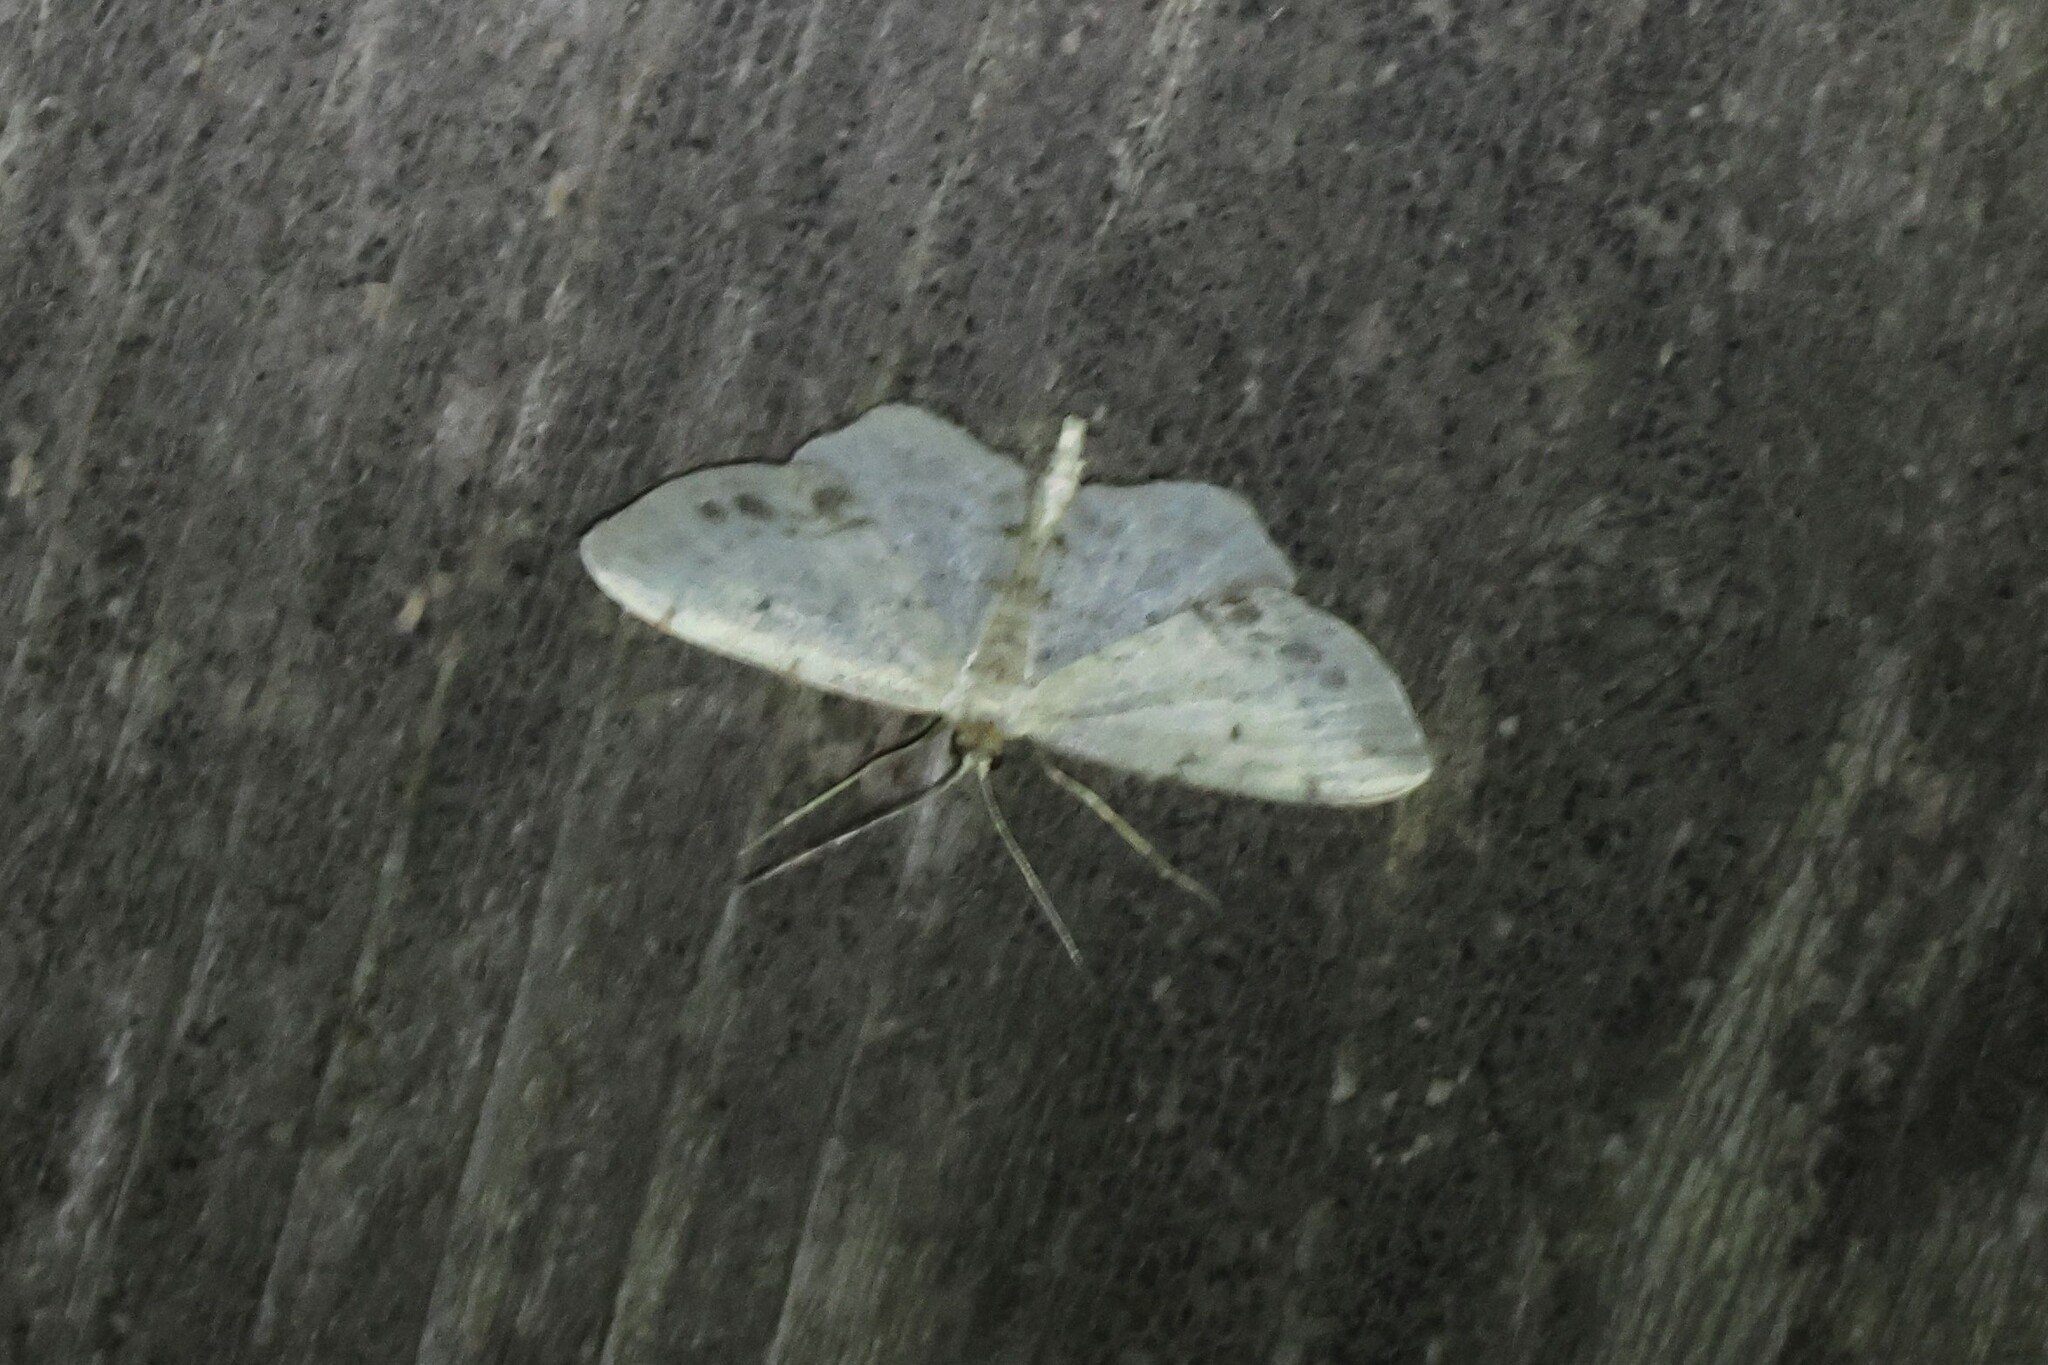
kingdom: Animalia
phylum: Arthropoda
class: Insecta
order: Lepidoptera
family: Geometridae
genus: Idaea
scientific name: Idaea dimidiata
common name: Single-dotted wave
